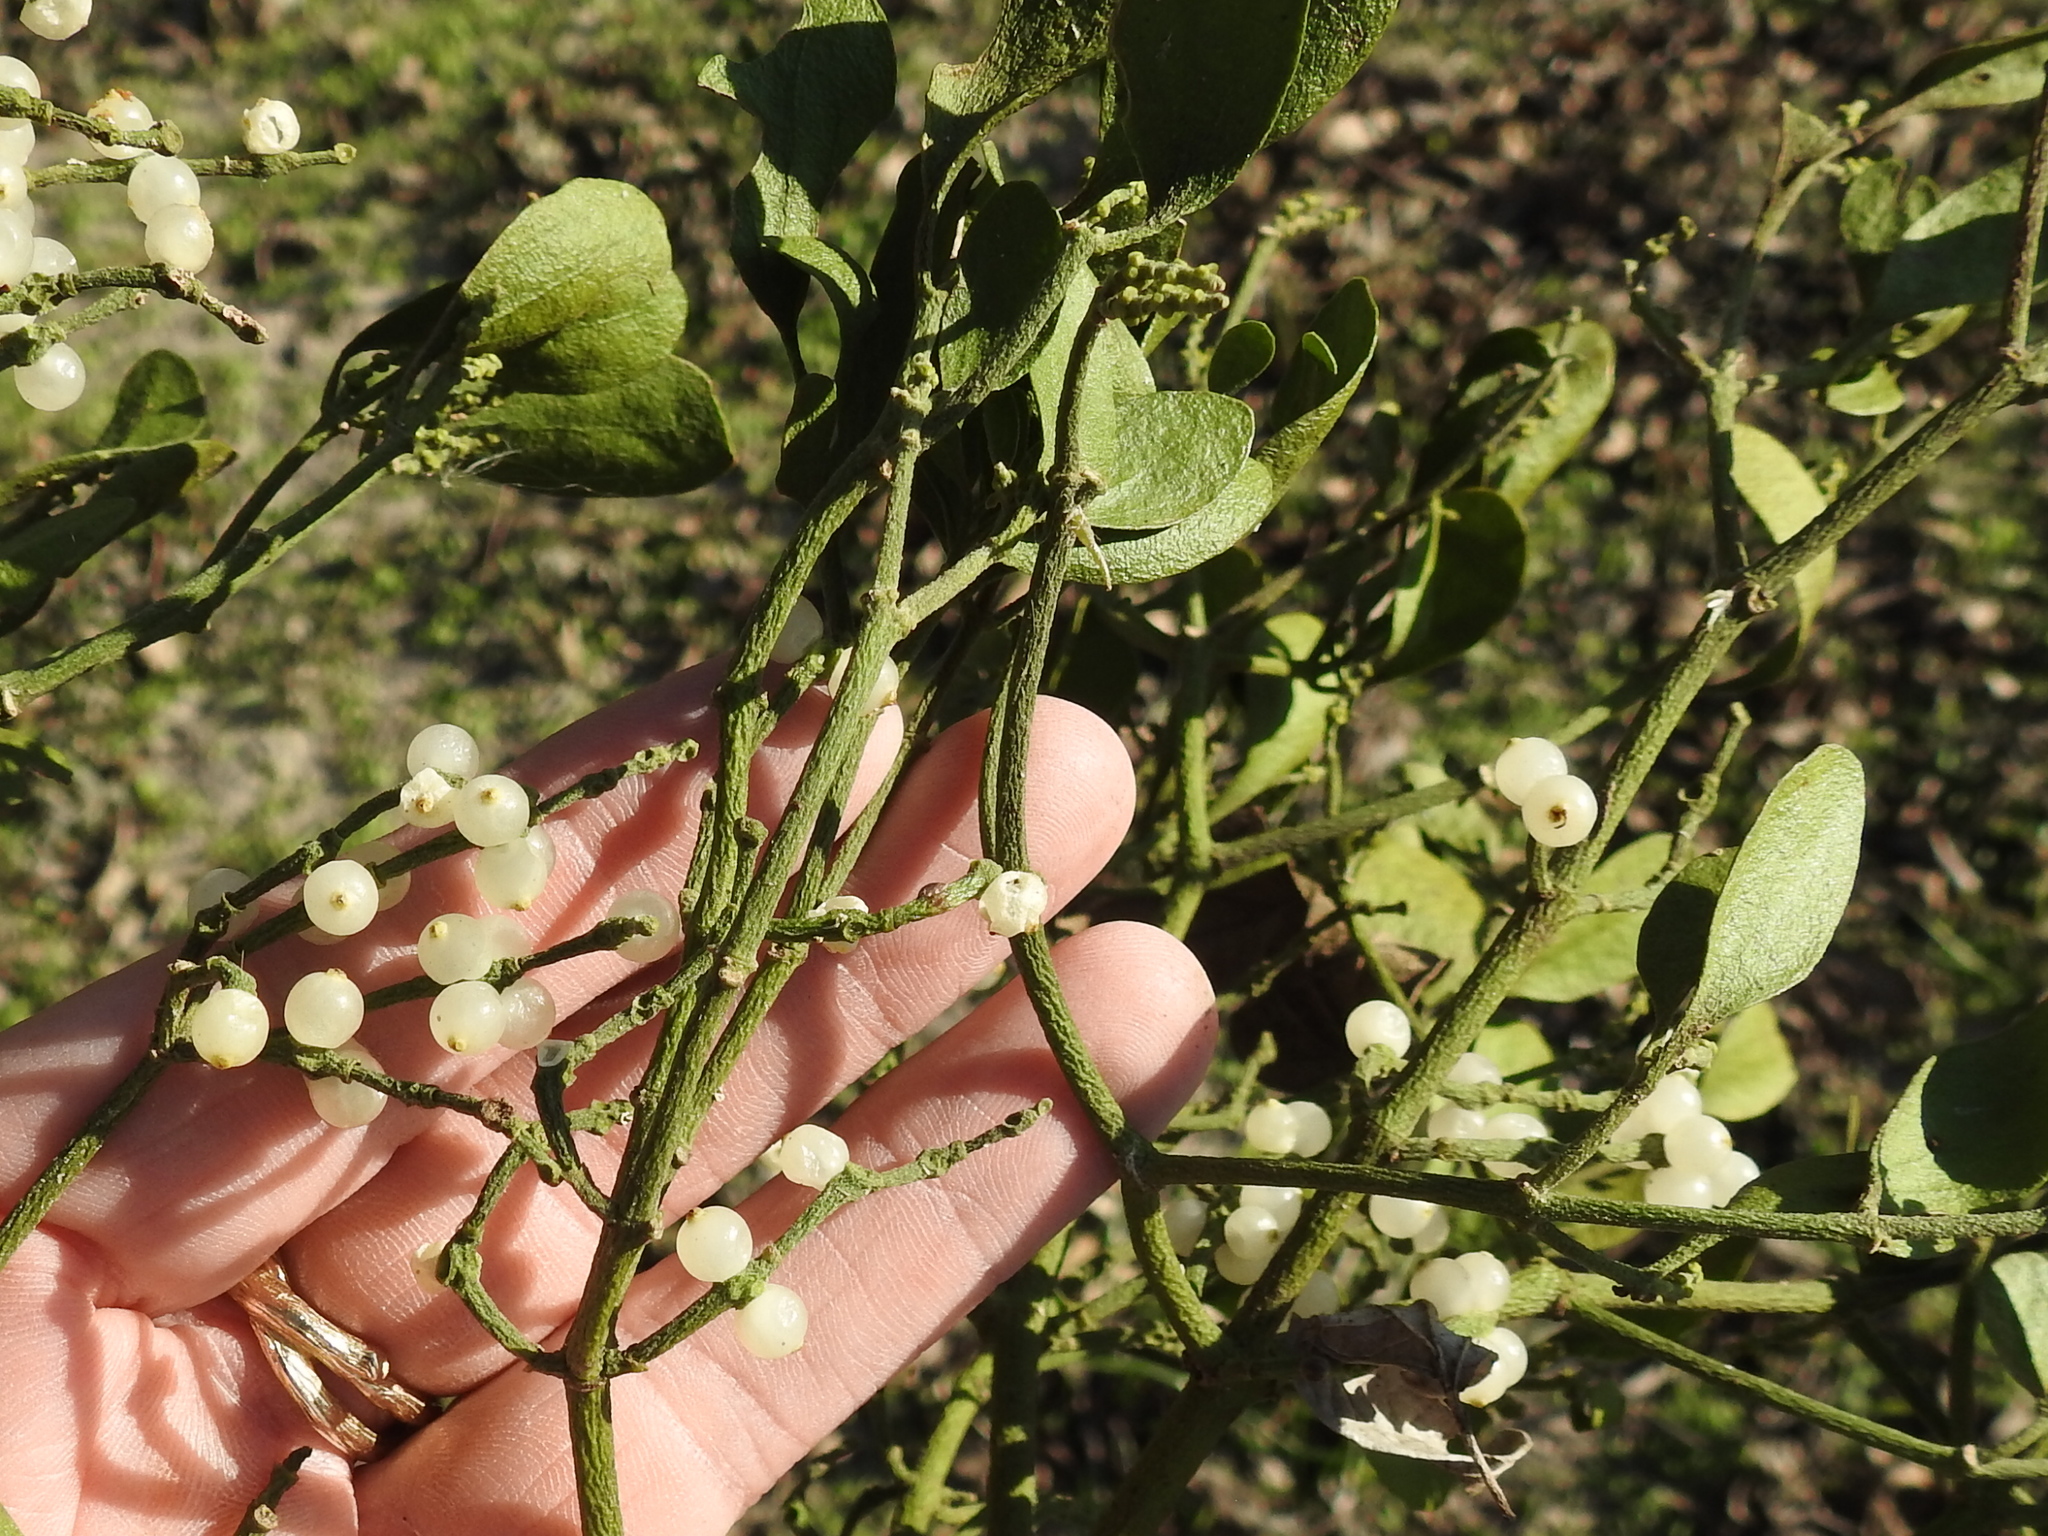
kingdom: Plantae
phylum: Tracheophyta
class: Magnoliopsida
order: Santalales
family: Viscaceae
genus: Phoradendron
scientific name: Phoradendron leucarpum
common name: Pacific mistletoe
